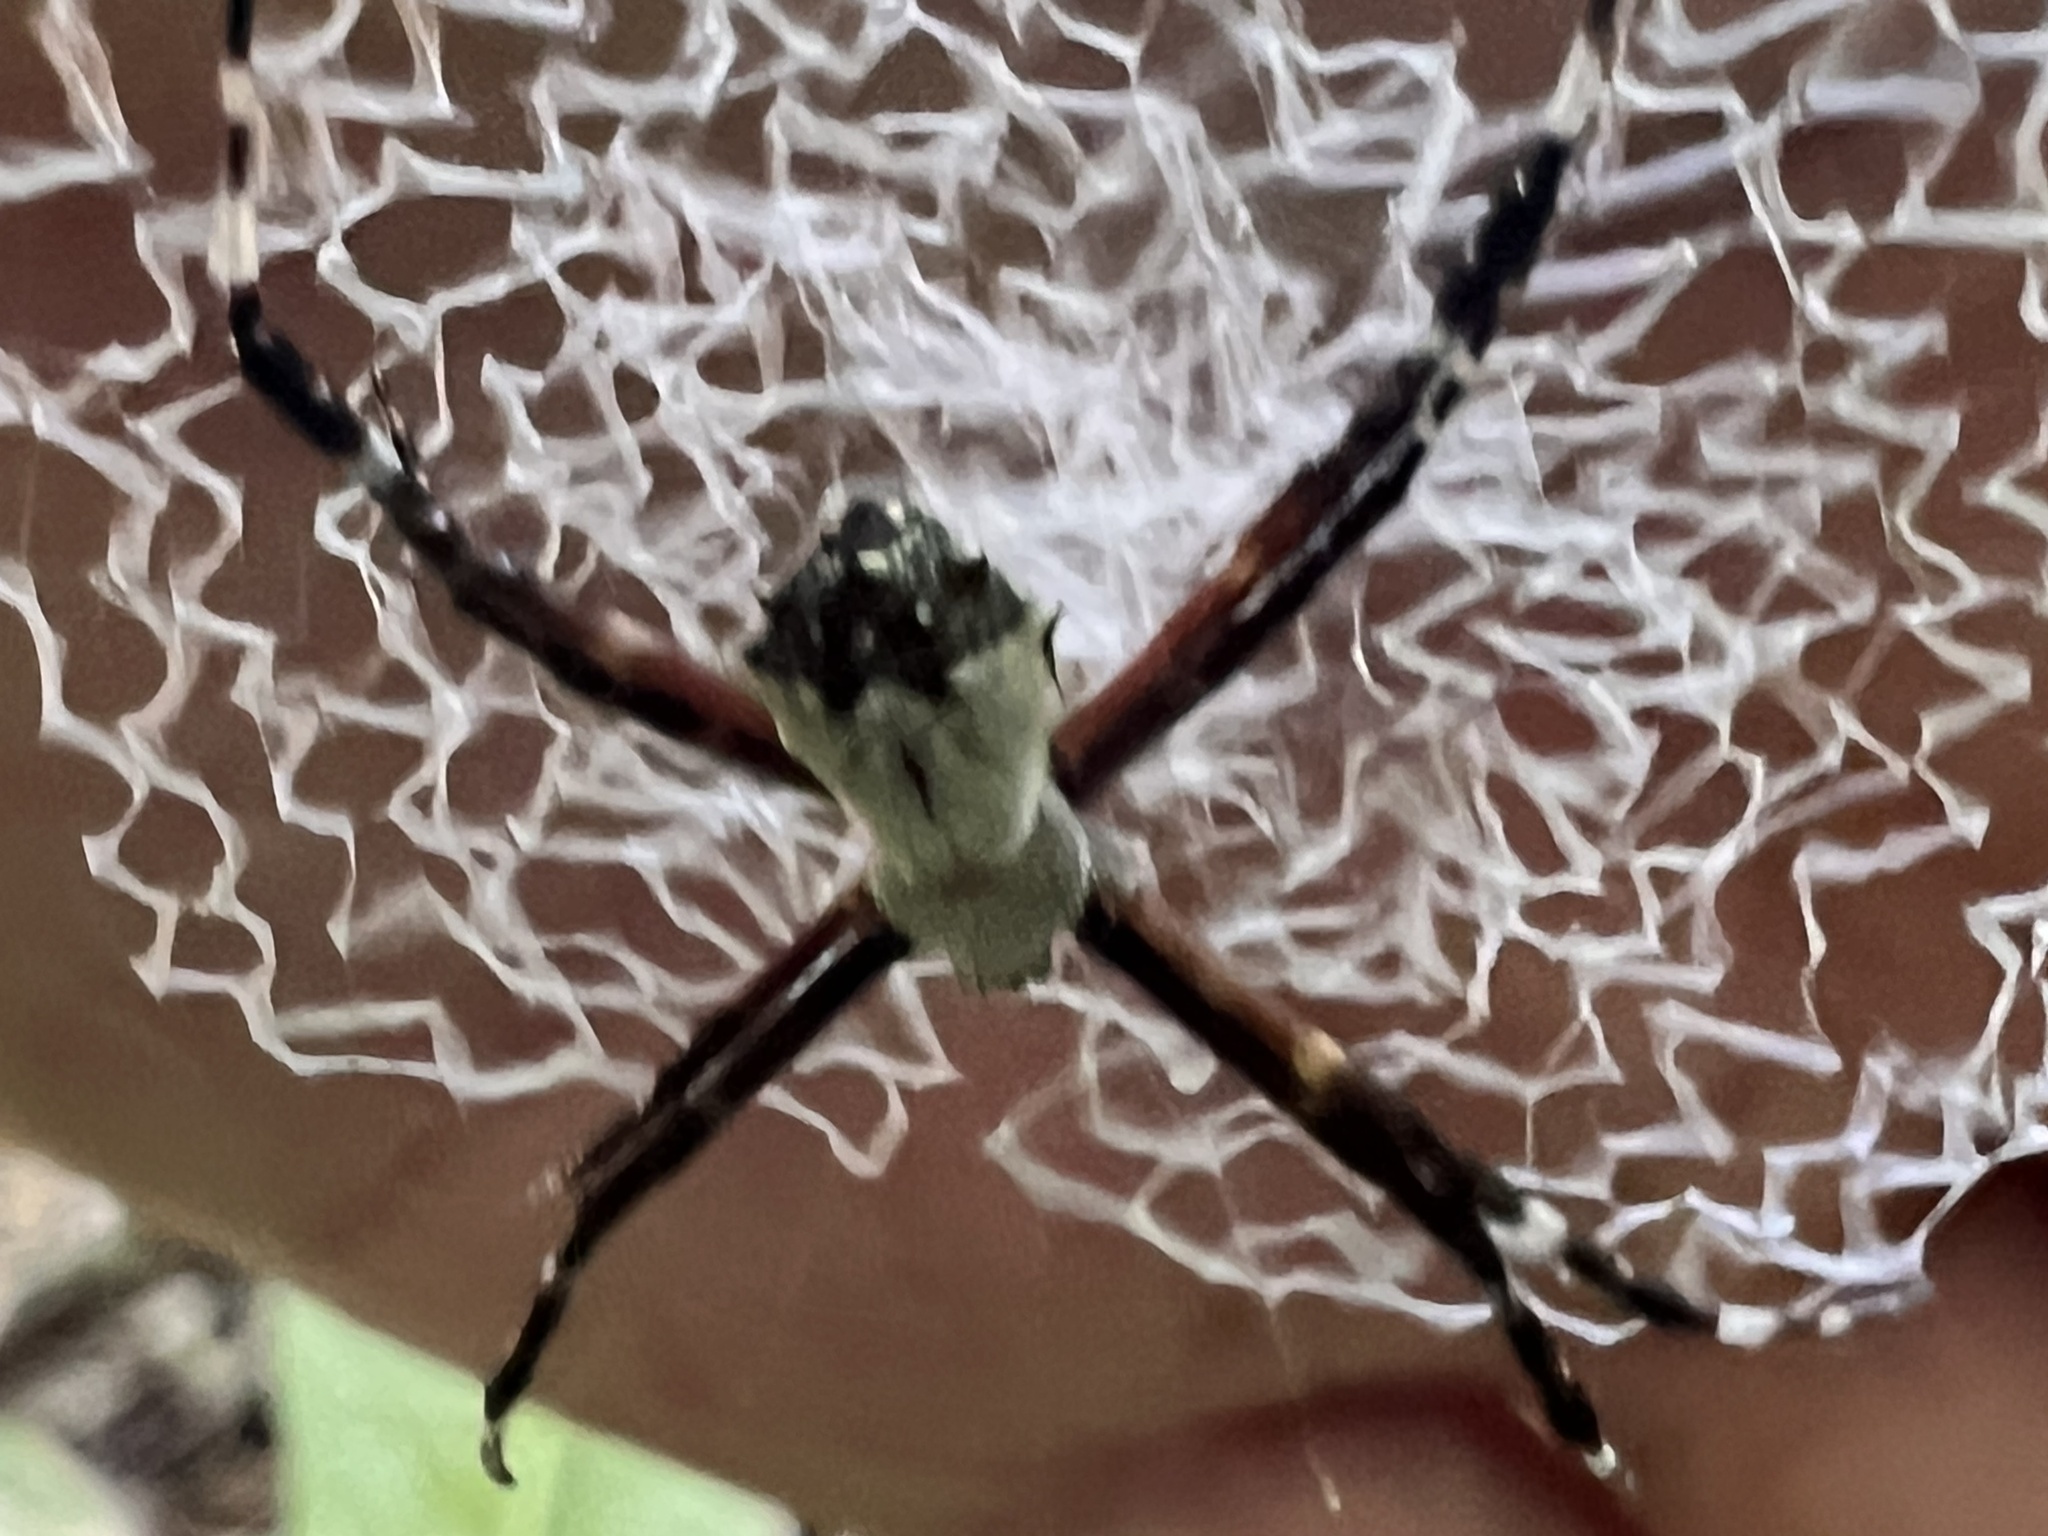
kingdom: Animalia
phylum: Arthropoda
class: Arachnida
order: Araneae
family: Araneidae
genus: Argiope
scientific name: Argiope submaronica
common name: Orb weavers
